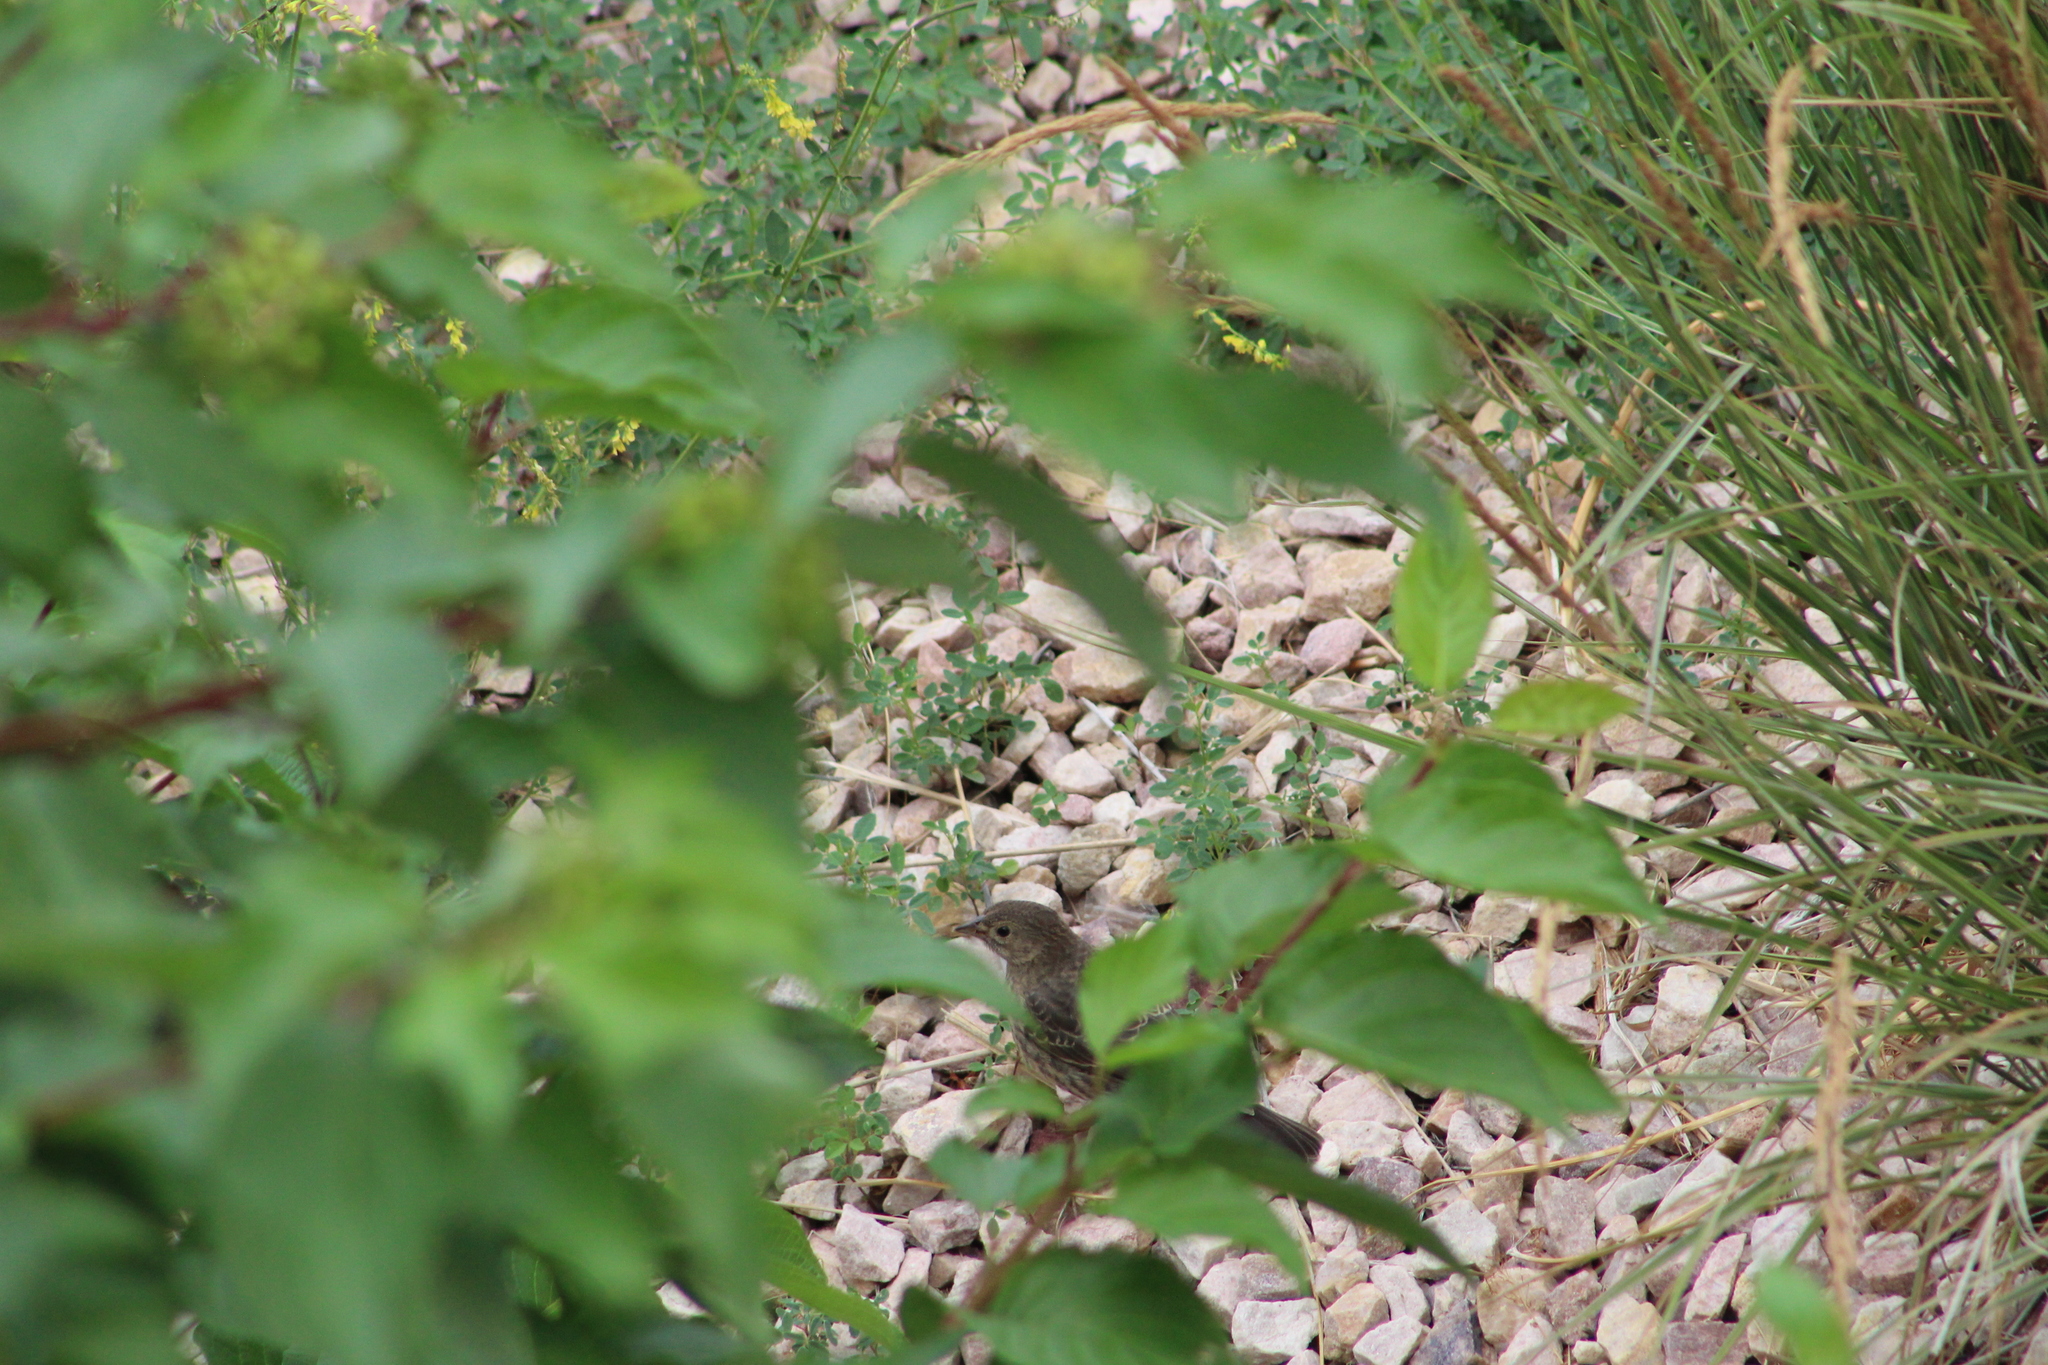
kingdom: Animalia
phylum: Chordata
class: Aves
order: Passeriformes
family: Icteridae
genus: Molothrus
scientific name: Molothrus ater
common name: Brown-headed cowbird
